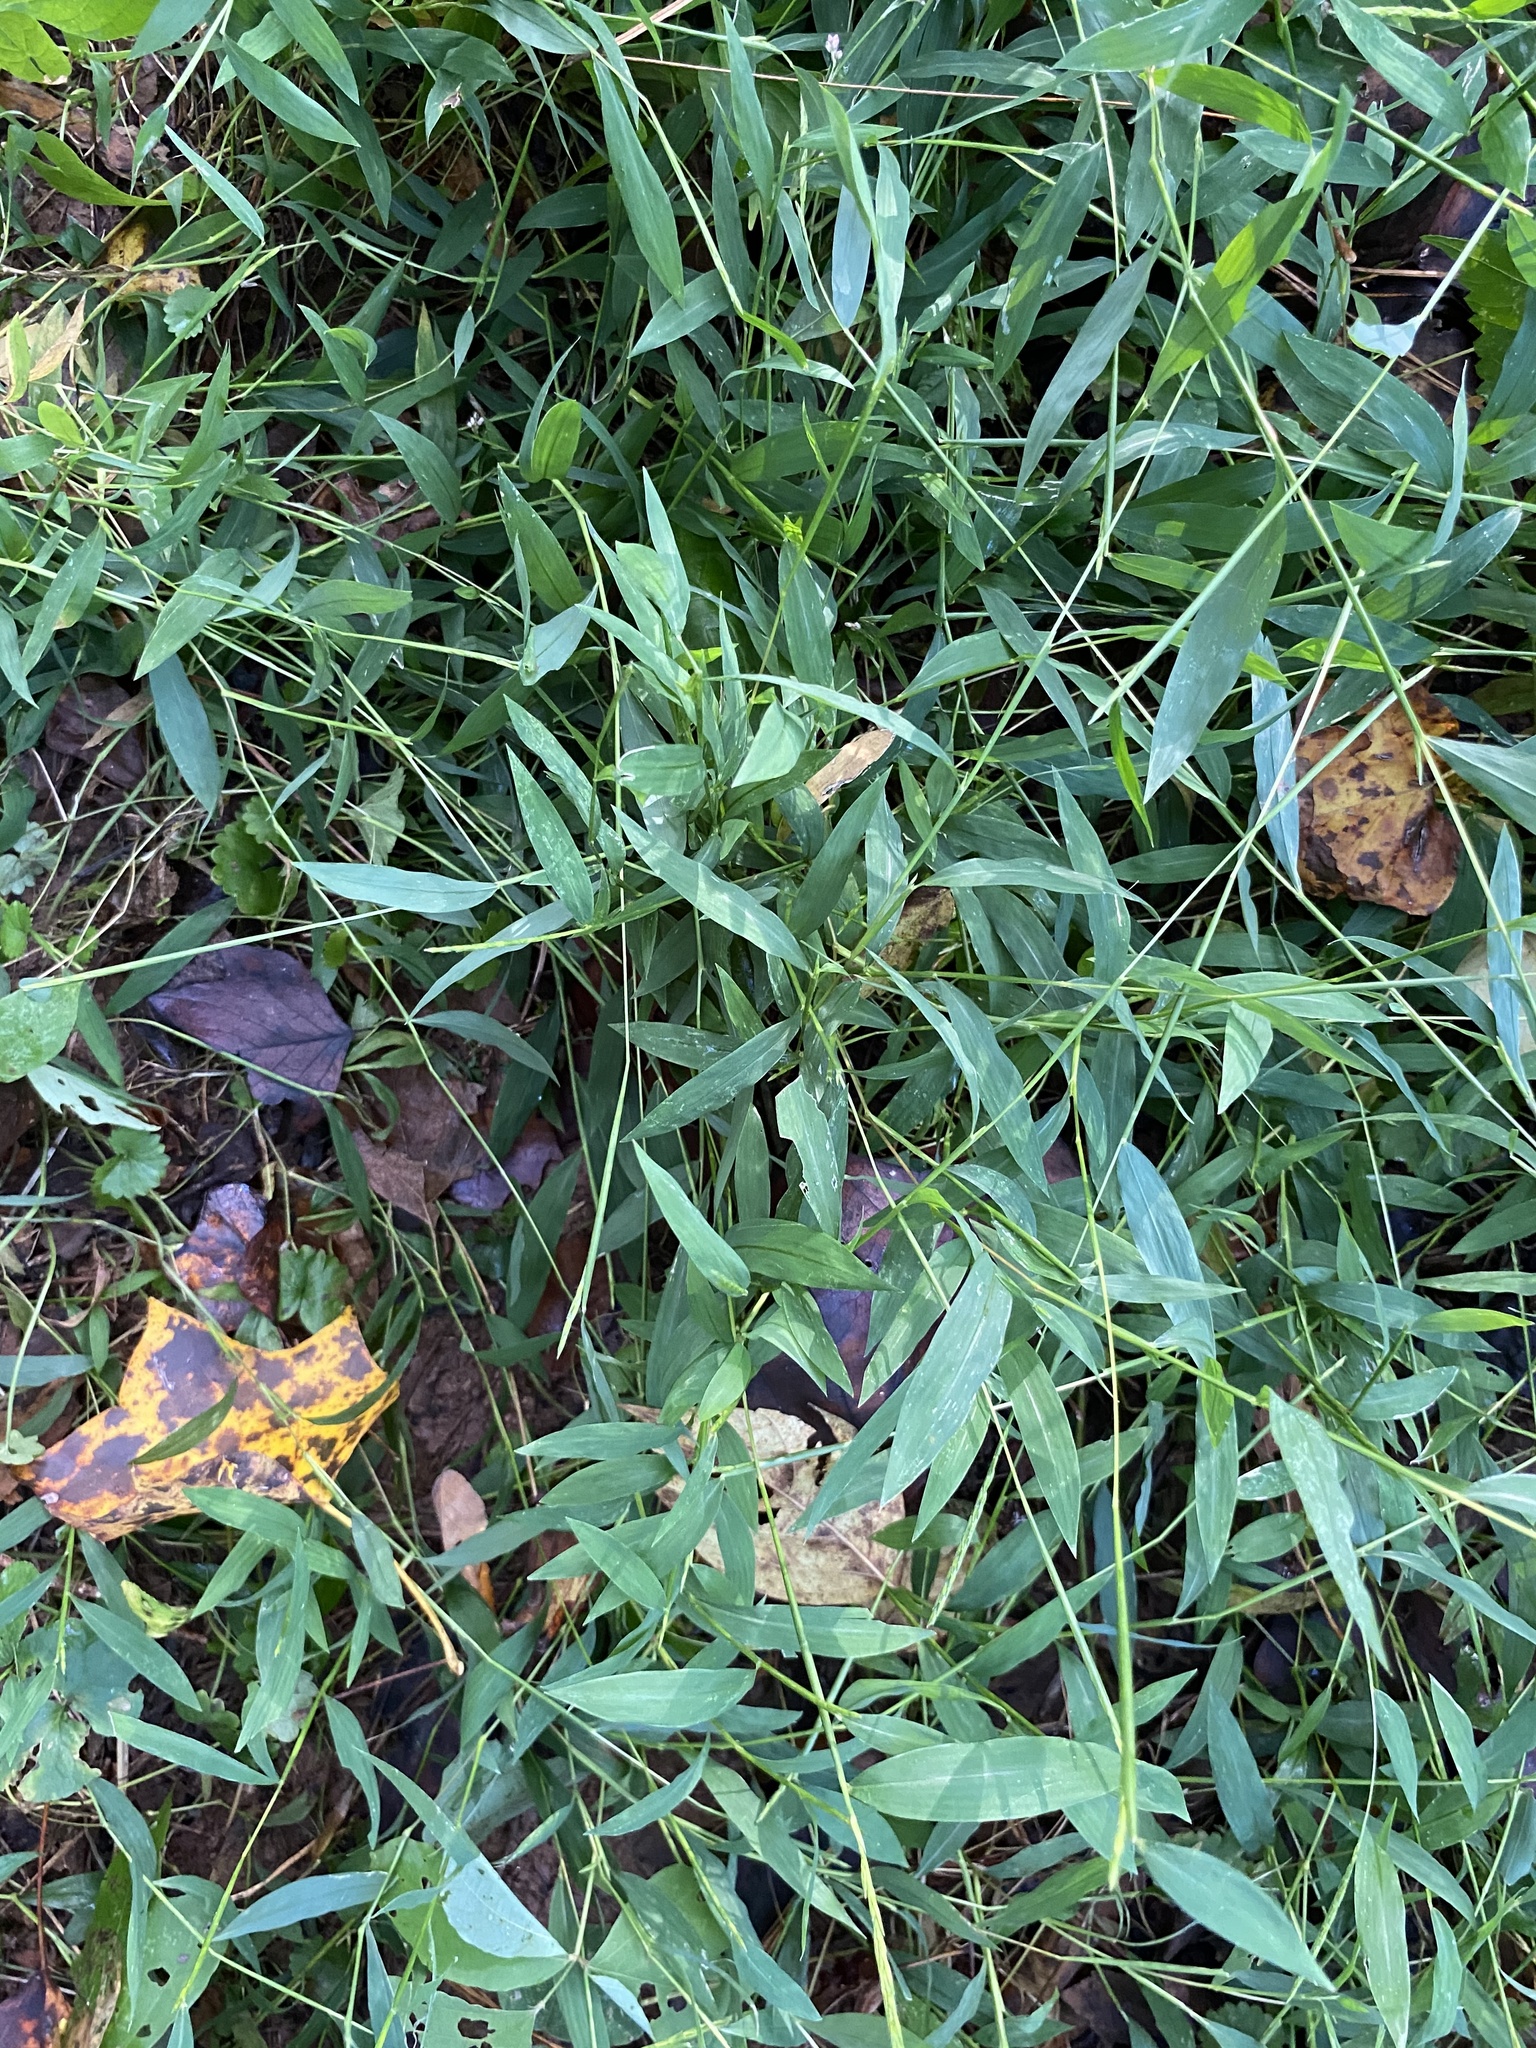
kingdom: Plantae
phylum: Tracheophyta
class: Liliopsida
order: Poales
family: Poaceae
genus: Microstegium
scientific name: Microstegium vimineum
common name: Japanese stiltgrass
